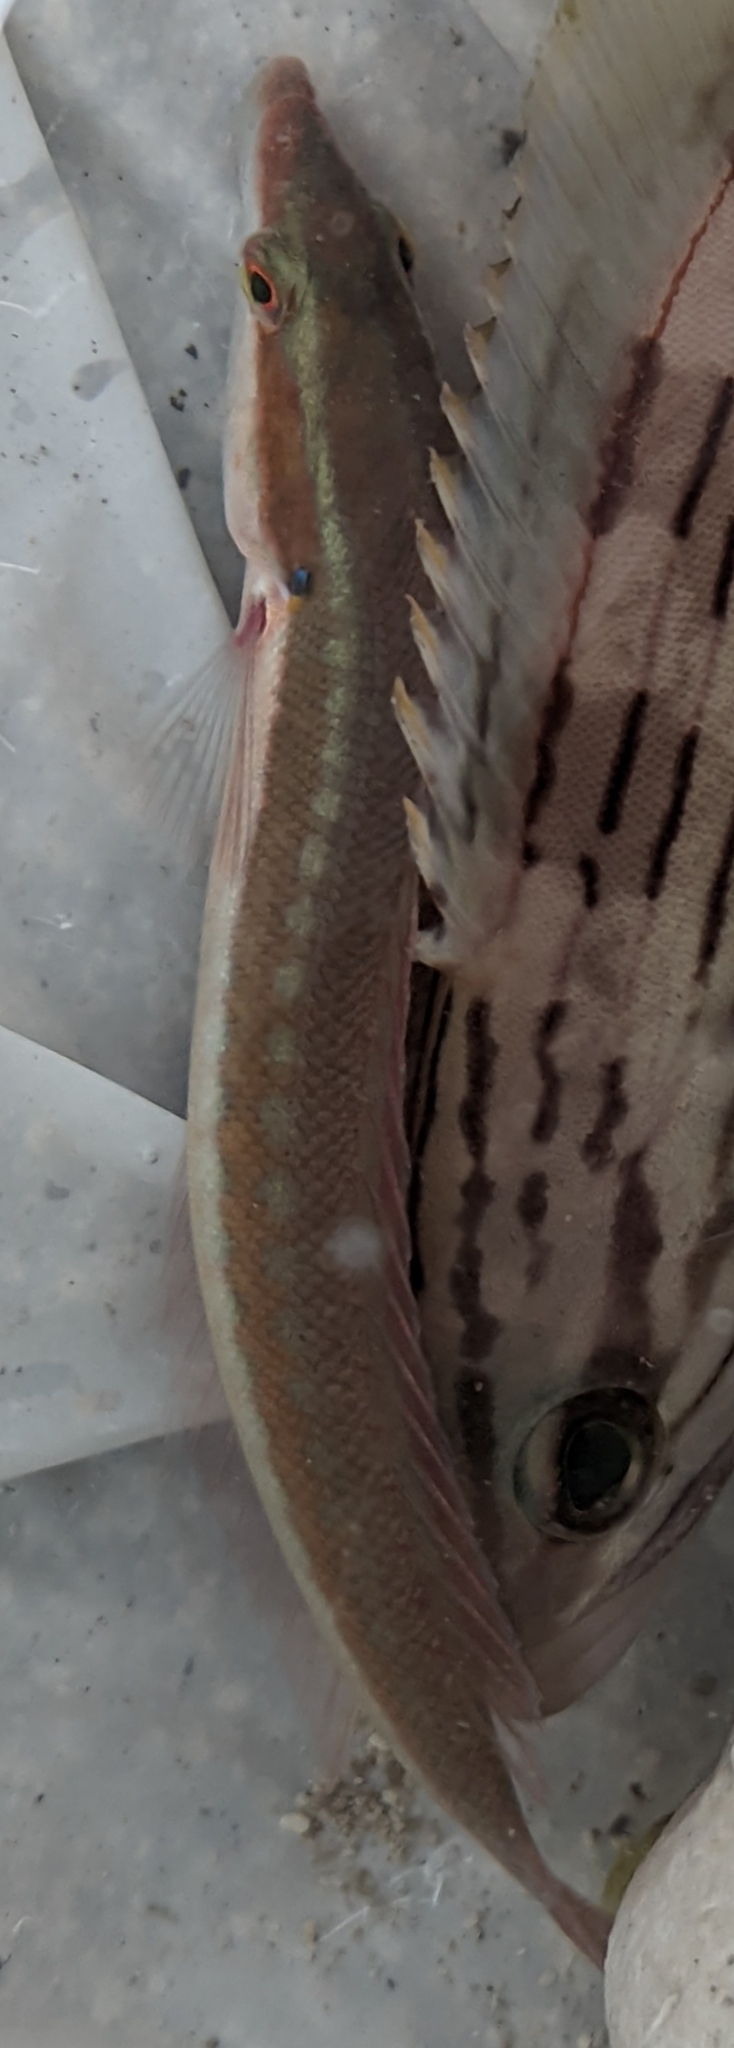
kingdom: Animalia
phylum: Chordata
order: Perciformes
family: Labridae
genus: Coris
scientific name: Coris julis
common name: Rainbow wrasse
